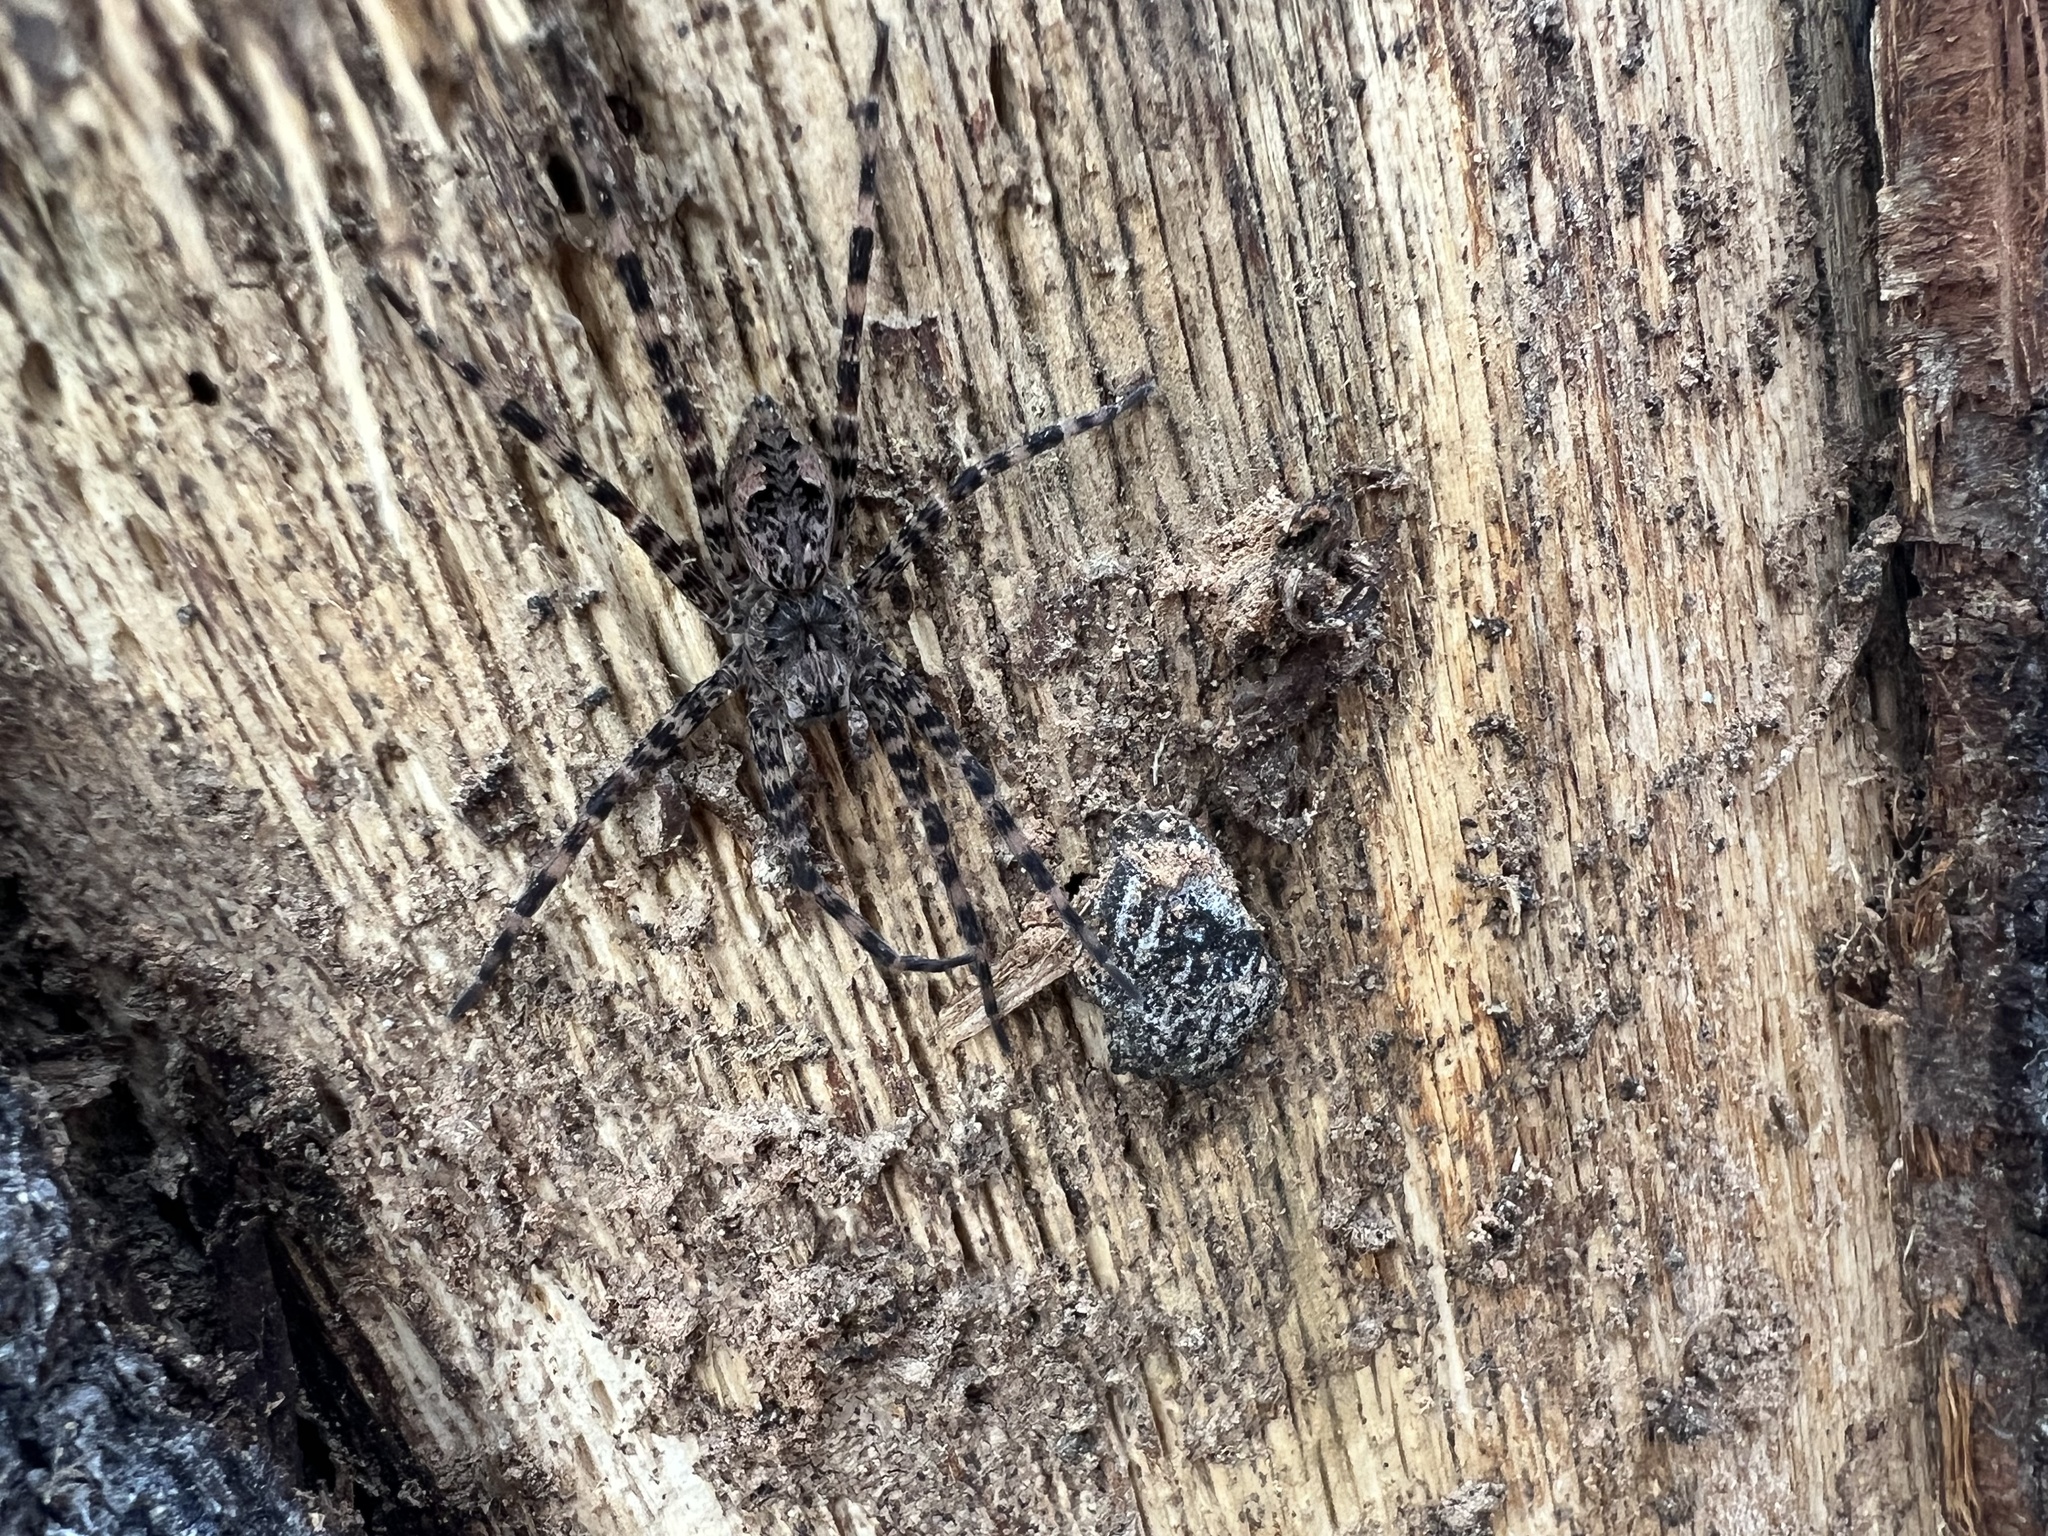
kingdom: Animalia
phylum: Arthropoda
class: Arachnida
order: Araneae
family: Pisauridae
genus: Dolomedes
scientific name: Dolomedes tenebrosus
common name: Dark fishing spider
